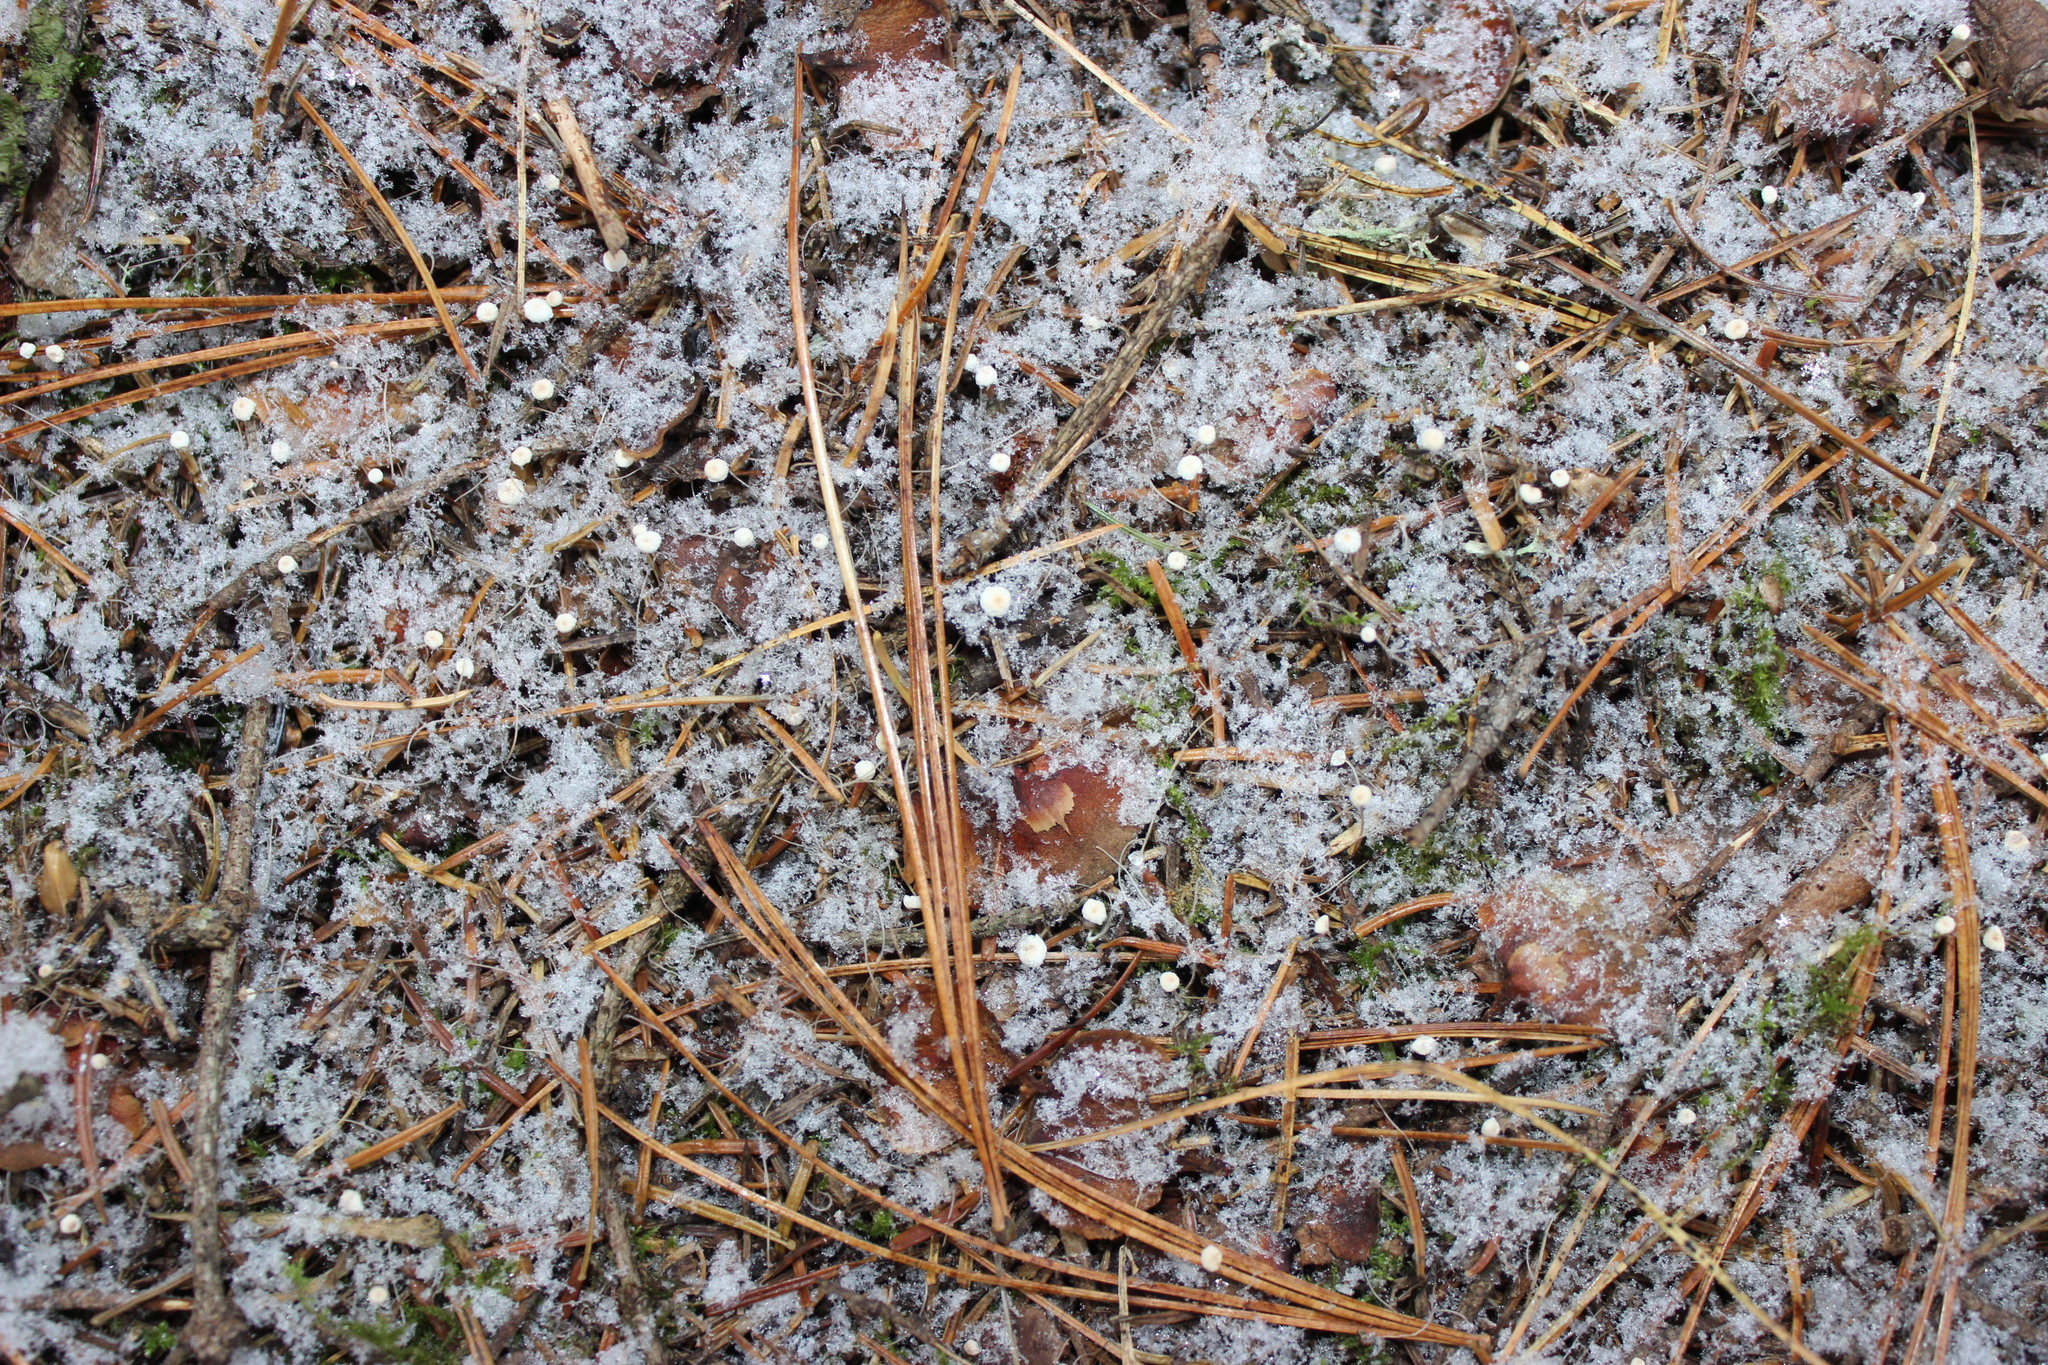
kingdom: Fungi
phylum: Basidiomycota
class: Agaricomycetes
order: Agaricales
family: Physalacriaceae
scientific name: Physalacriaceae
